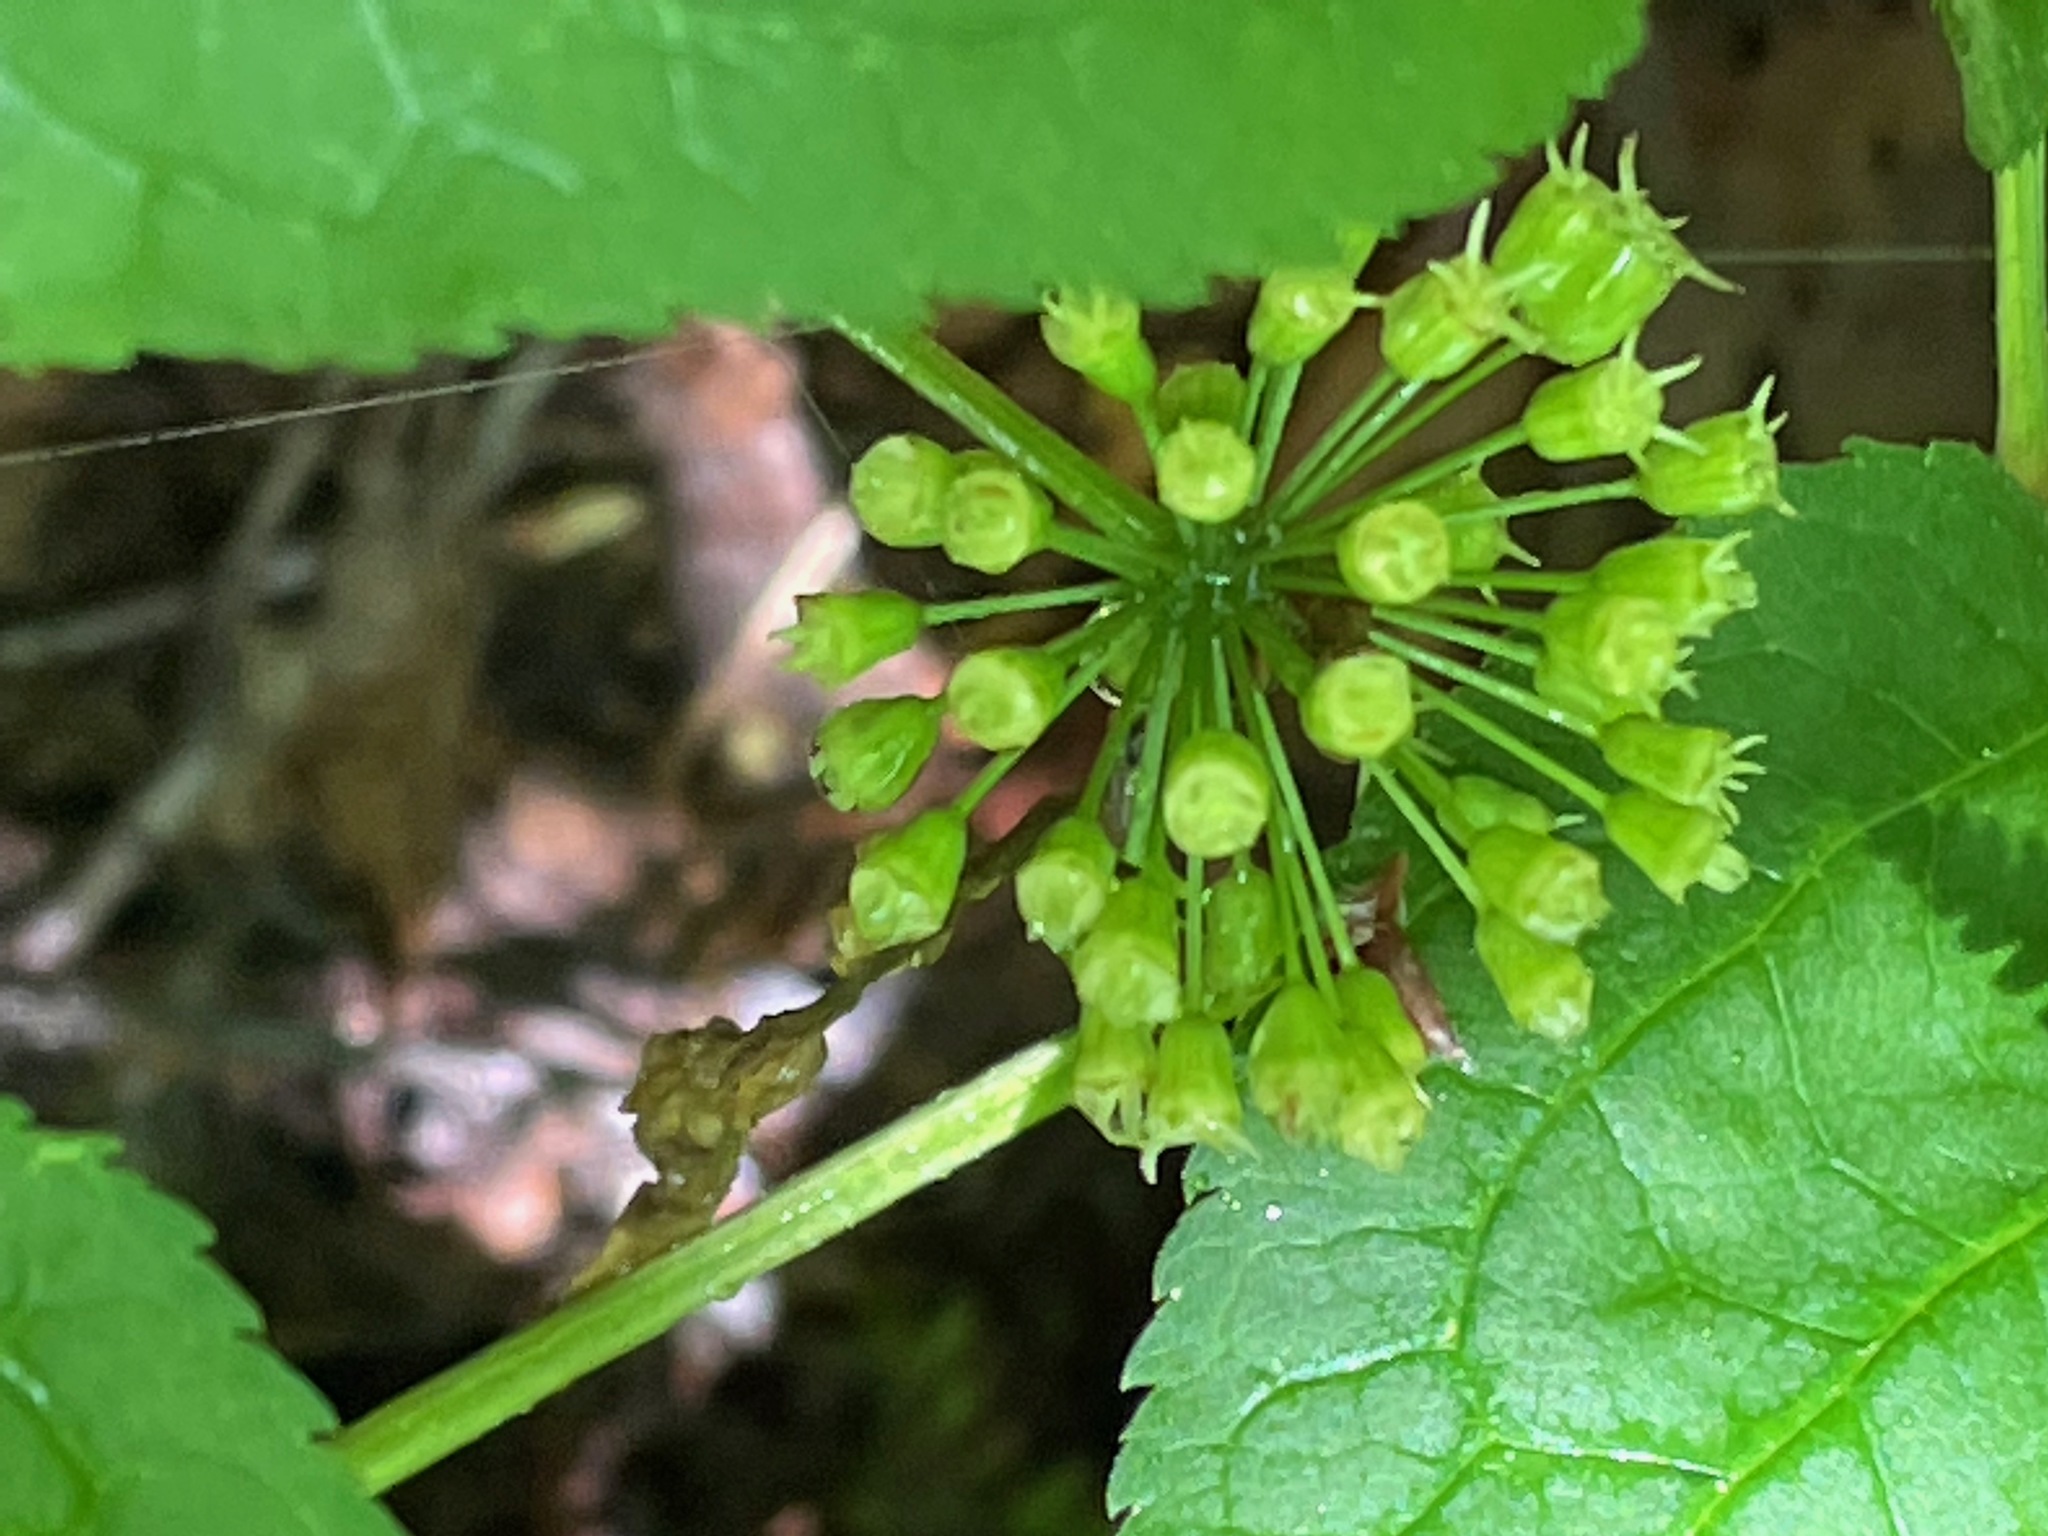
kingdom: Plantae
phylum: Tracheophyta
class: Magnoliopsida
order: Apiales
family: Araliaceae
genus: Aralia
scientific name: Aralia nudicaulis
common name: Wild sarsaparilla
